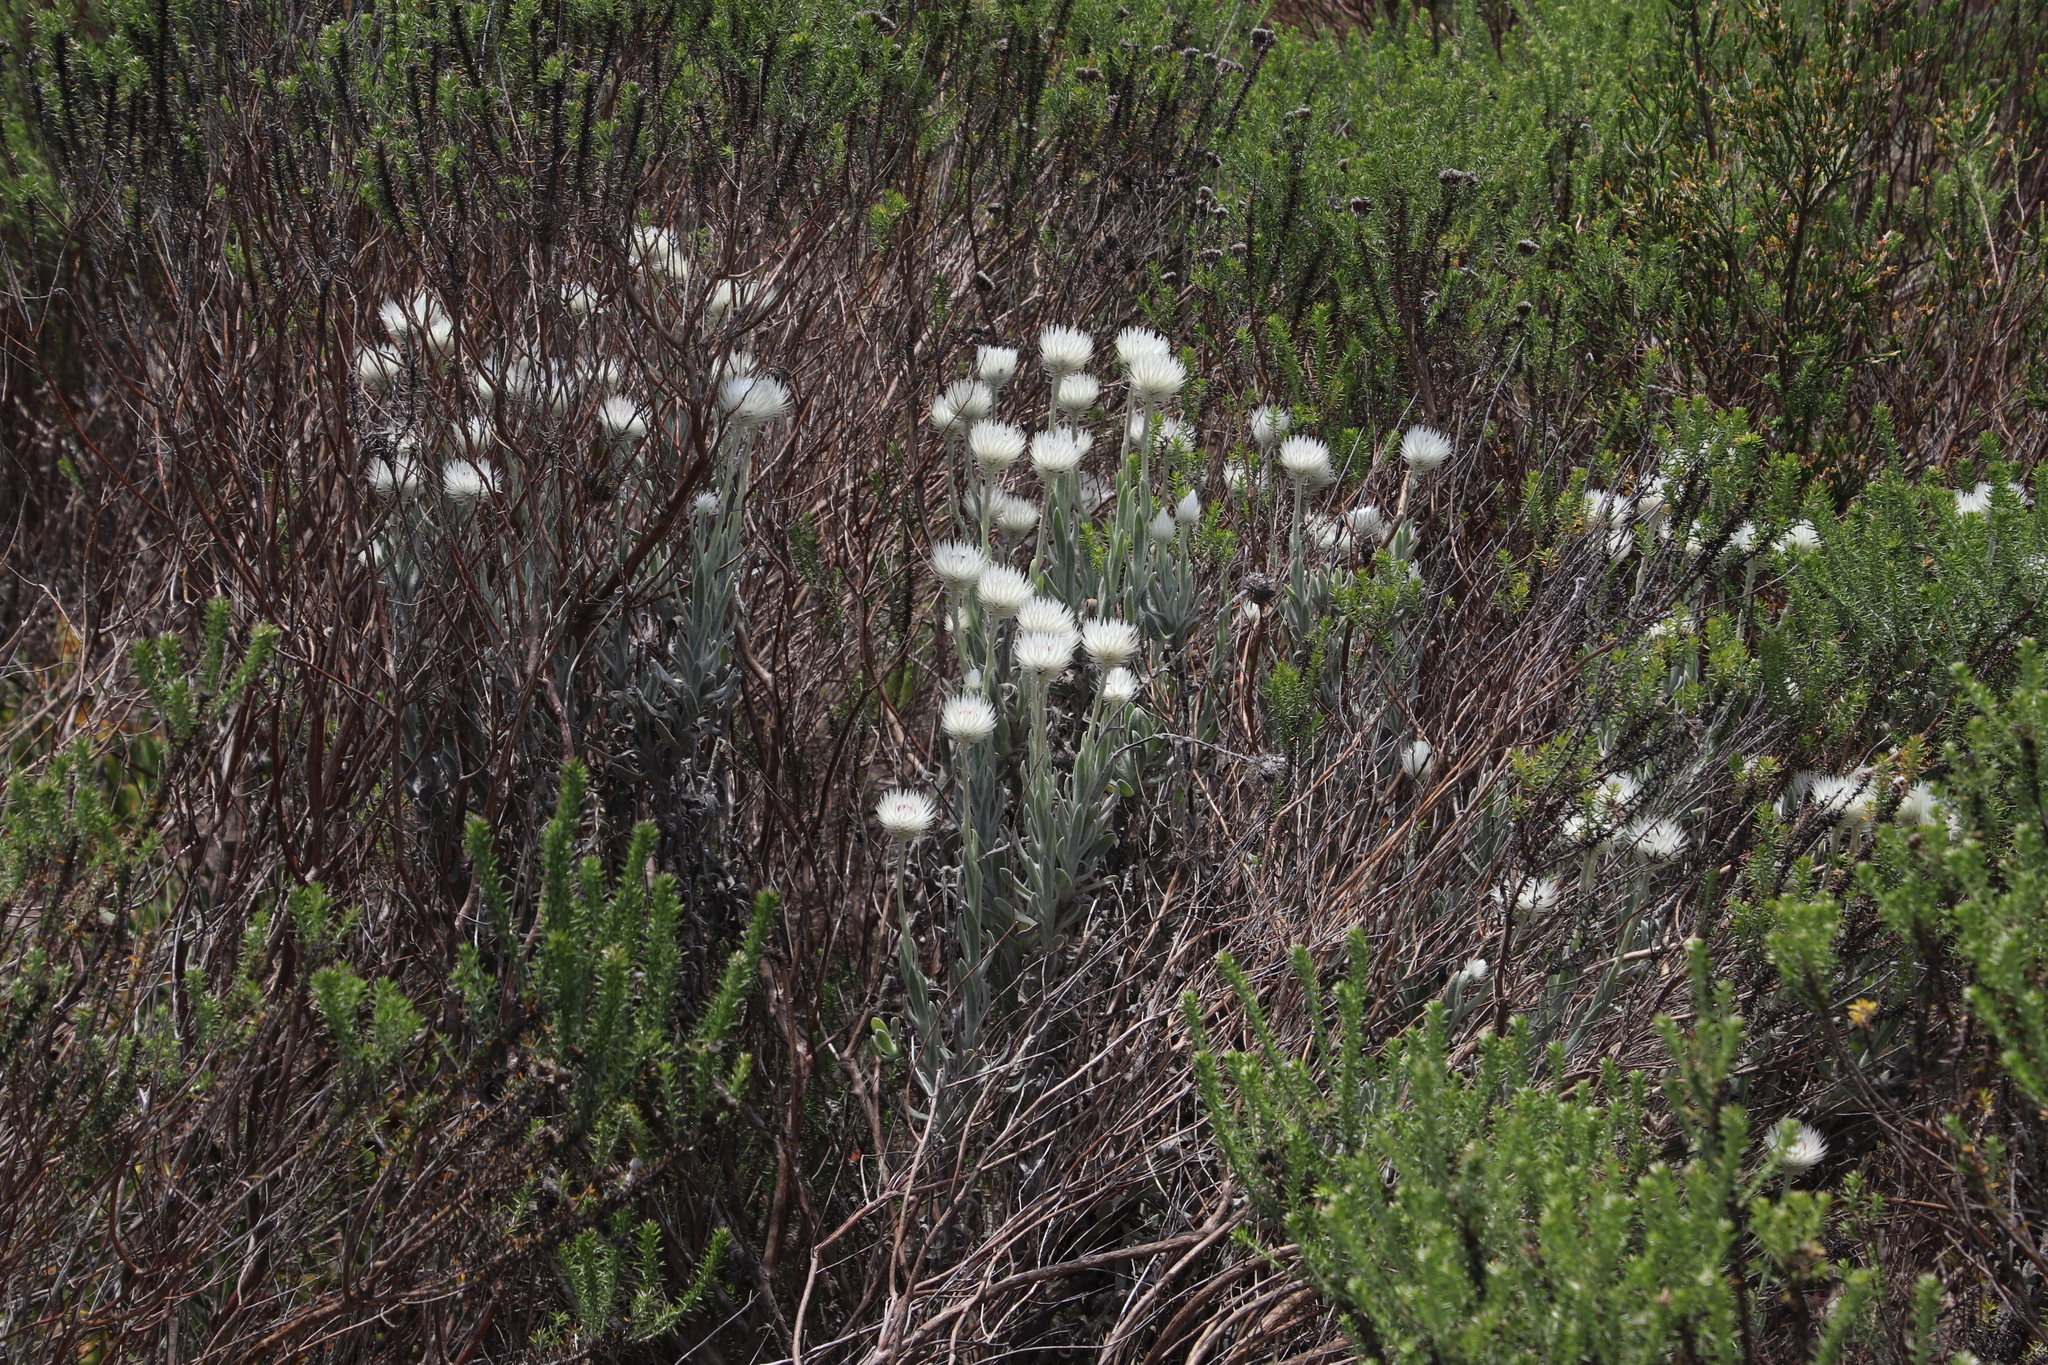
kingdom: Plantae
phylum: Tracheophyta
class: Magnoliopsida
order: Asterales
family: Asteraceae
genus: Syncarpha
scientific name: Syncarpha vestita
